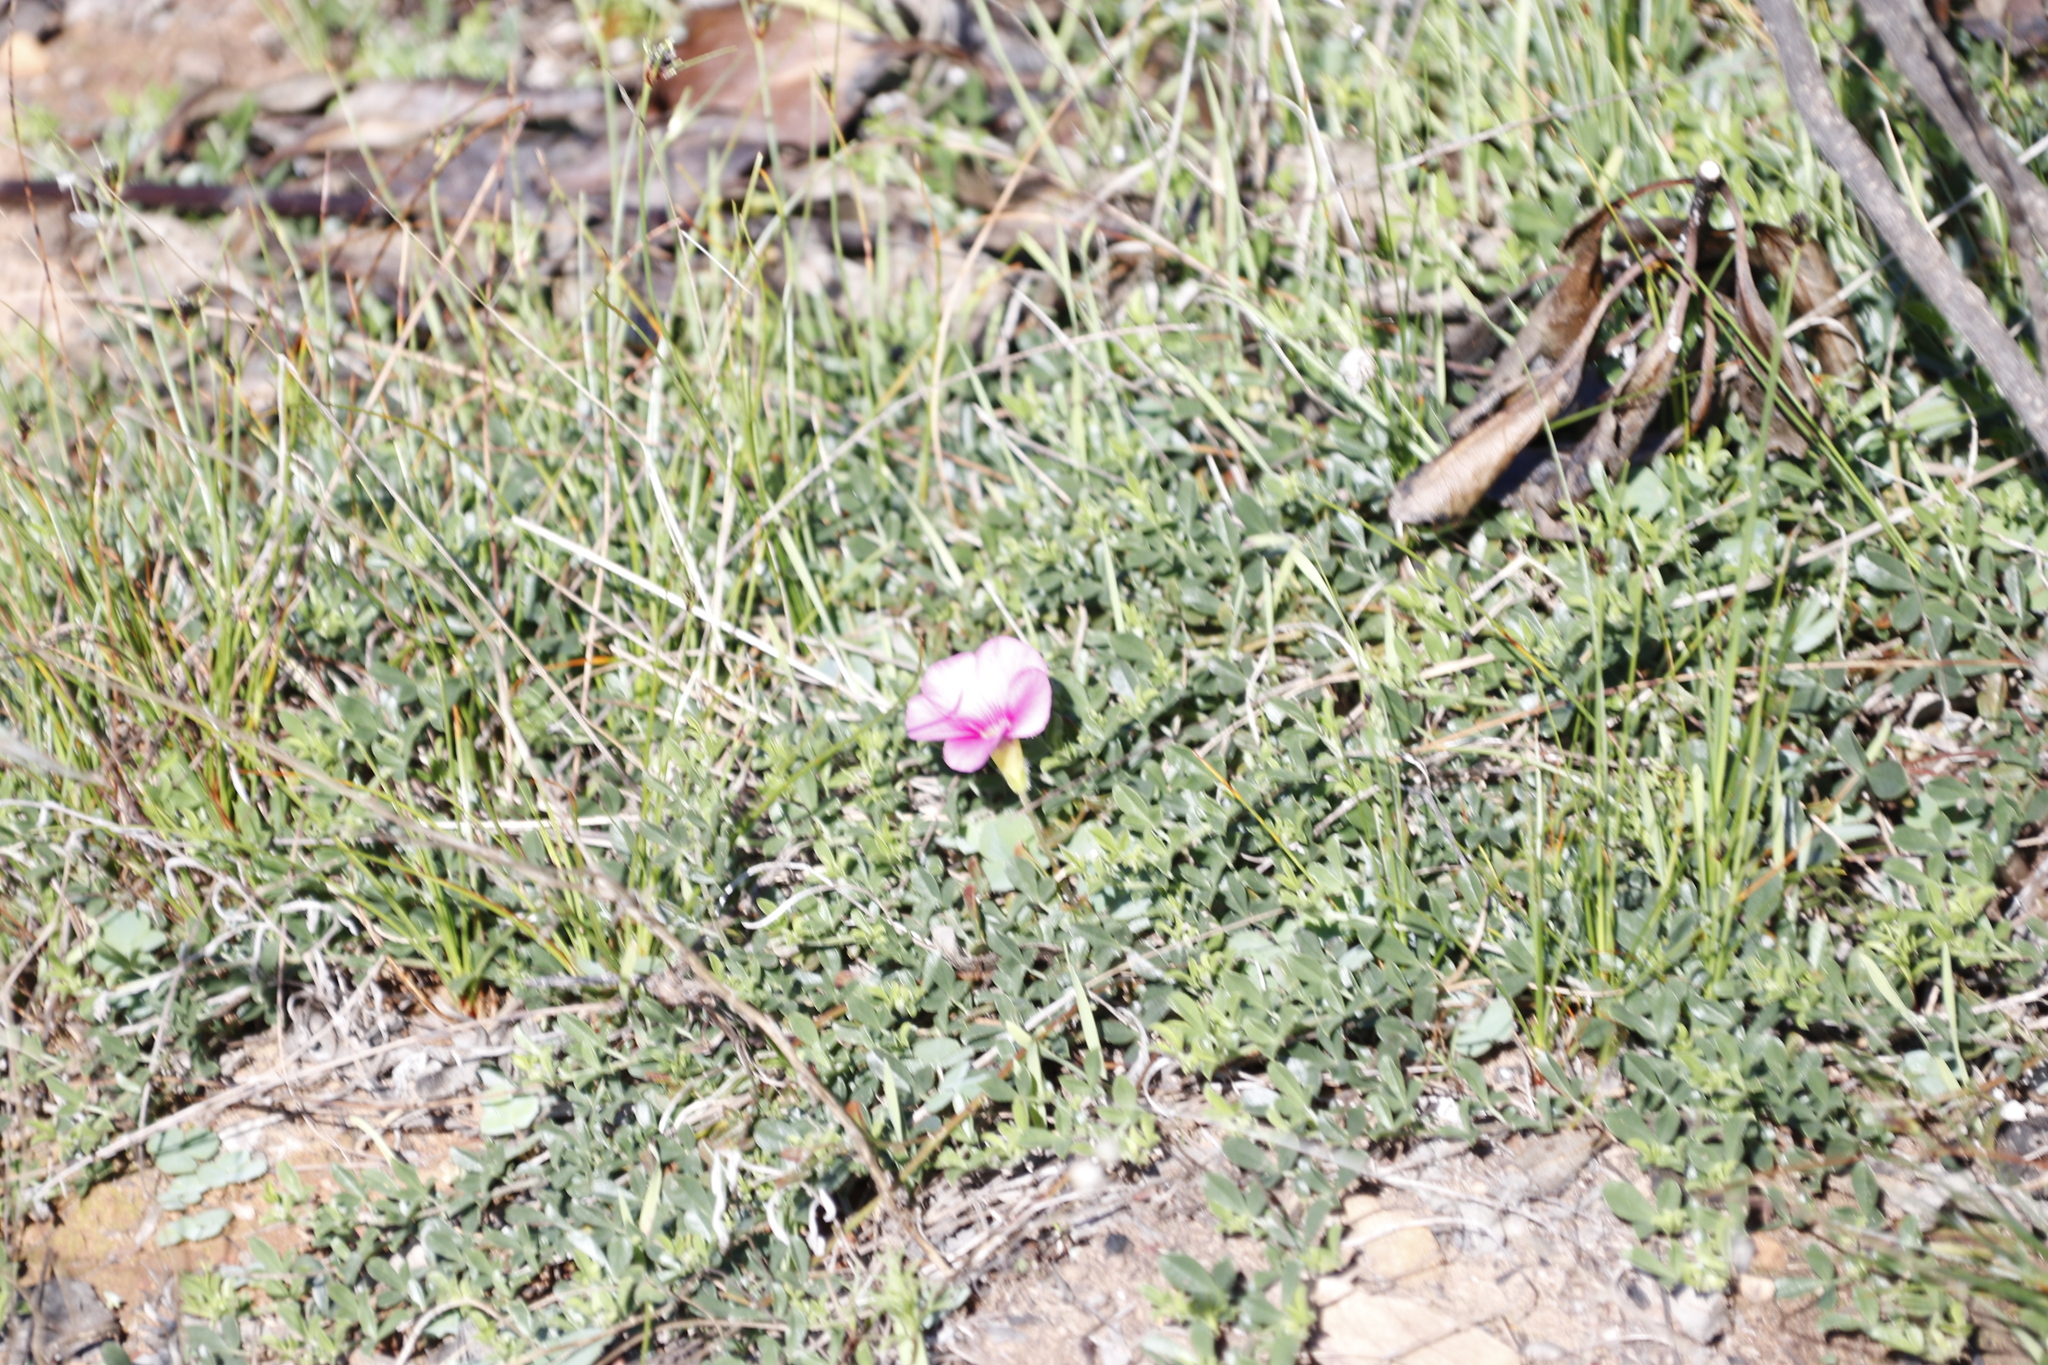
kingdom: Plantae
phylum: Tracheophyta
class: Magnoliopsida
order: Oxalidales
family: Oxalidaceae
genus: Oxalis
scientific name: Oxalis purpurea
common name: Purple woodsorrel
